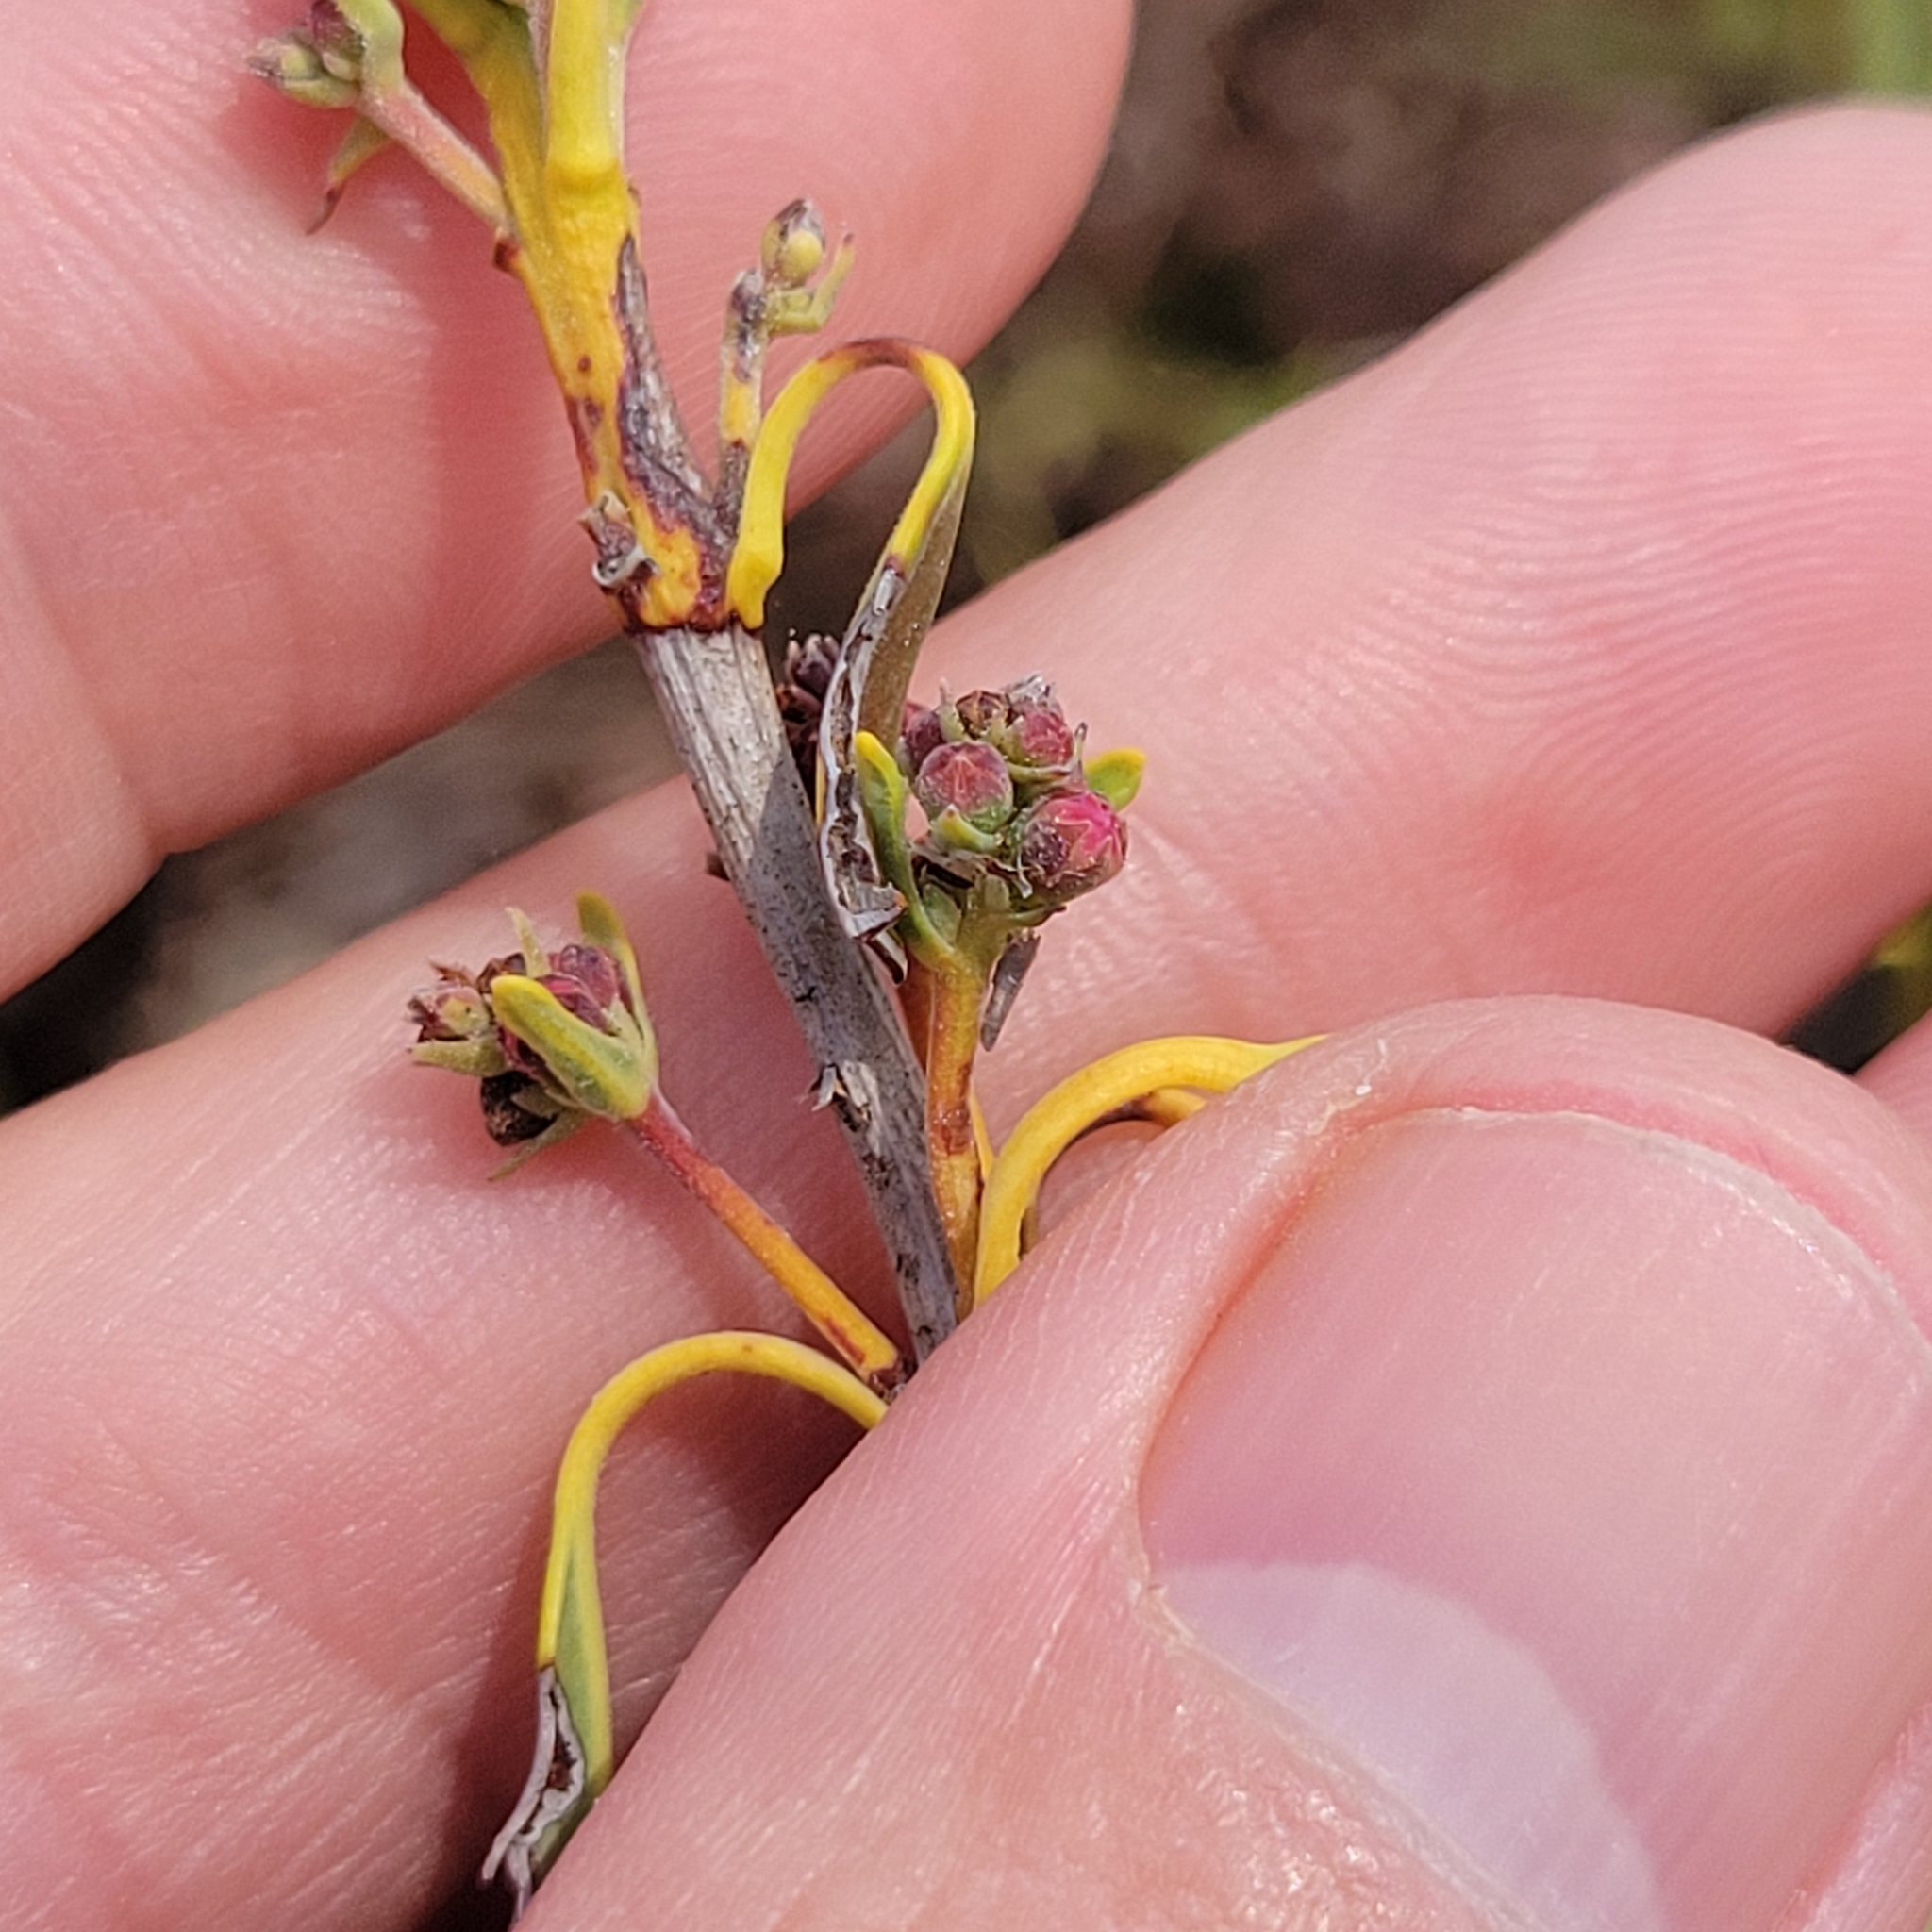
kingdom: Plantae
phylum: Tracheophyta
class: Magnoliopsida
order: Ericales
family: Ericaceae
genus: Kalmia
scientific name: Kalmia angustifolia
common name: Sheep-laurel
